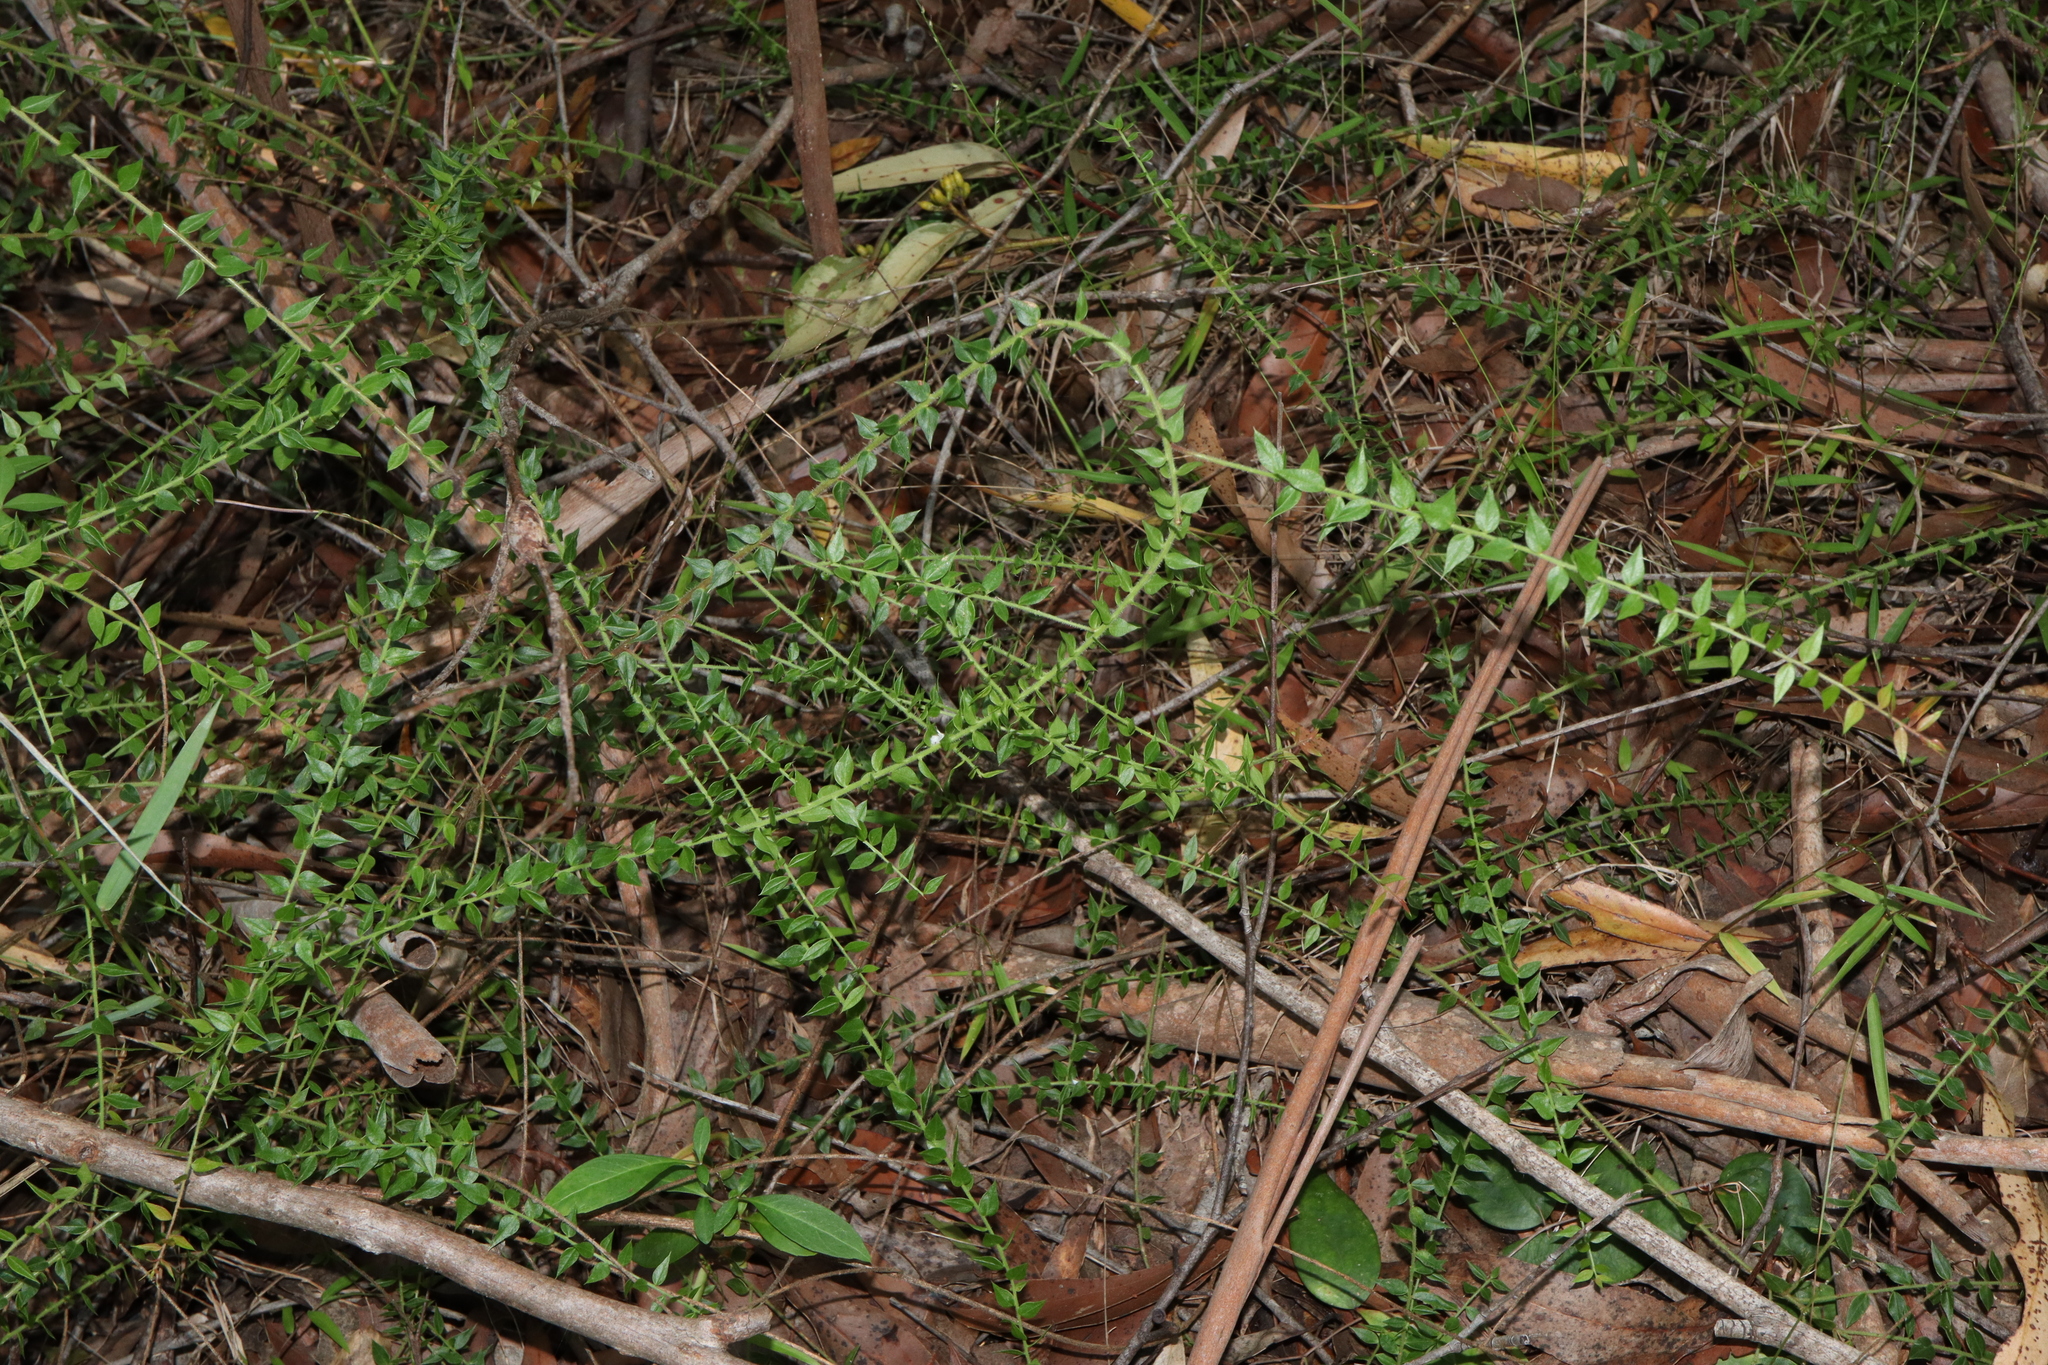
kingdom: Plantae
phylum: Tracheophyta
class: Magnoliopsida
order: Fabales
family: Fabaceae
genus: Daviesia
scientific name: Daviesia umbellulata
